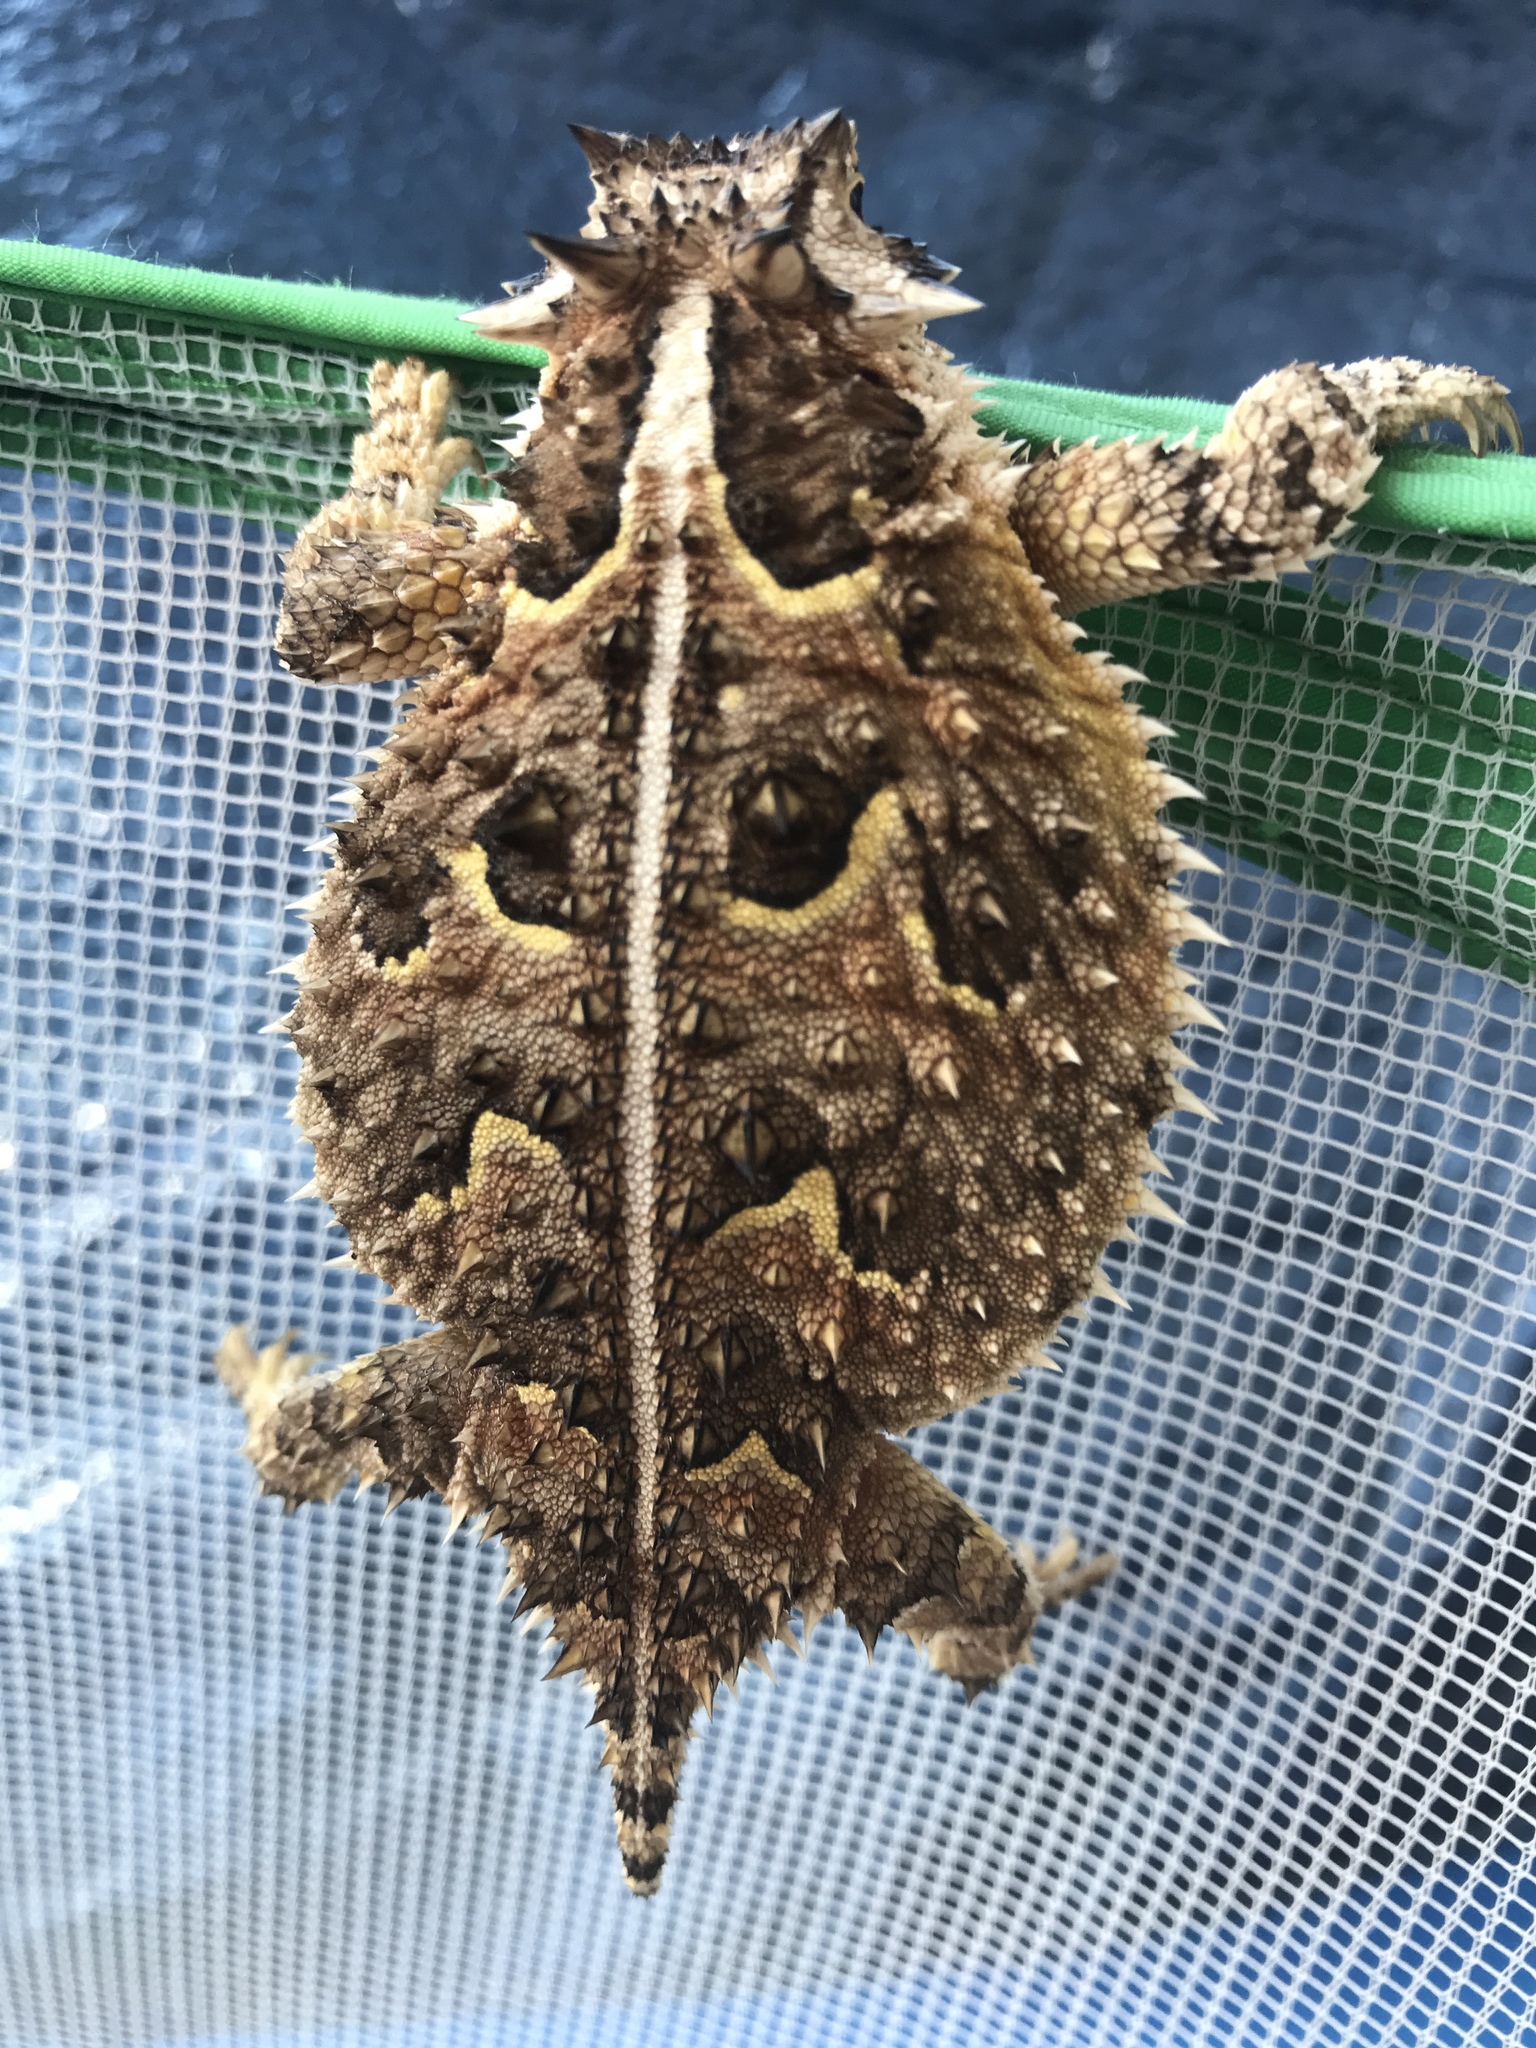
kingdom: Animalia
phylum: Chordata
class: Squamata
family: Phrynosomatidae
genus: Phrynosoma
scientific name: Phrynosoma cornutum
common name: Texas horned lizard
